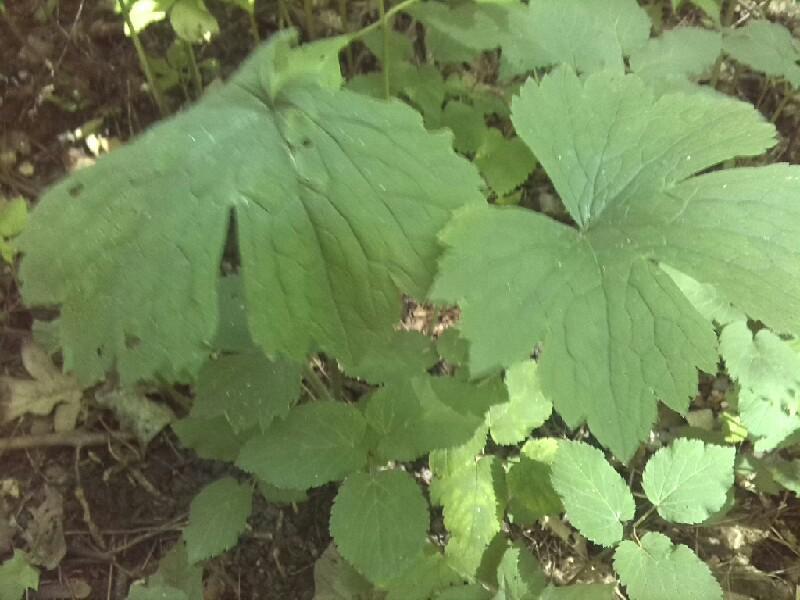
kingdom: Plantae
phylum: Tracheophyta
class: Magnoliopsida
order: Ranunculales
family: Ranunculaceae
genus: Ranunculus
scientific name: Ranunculus lanuginosus
